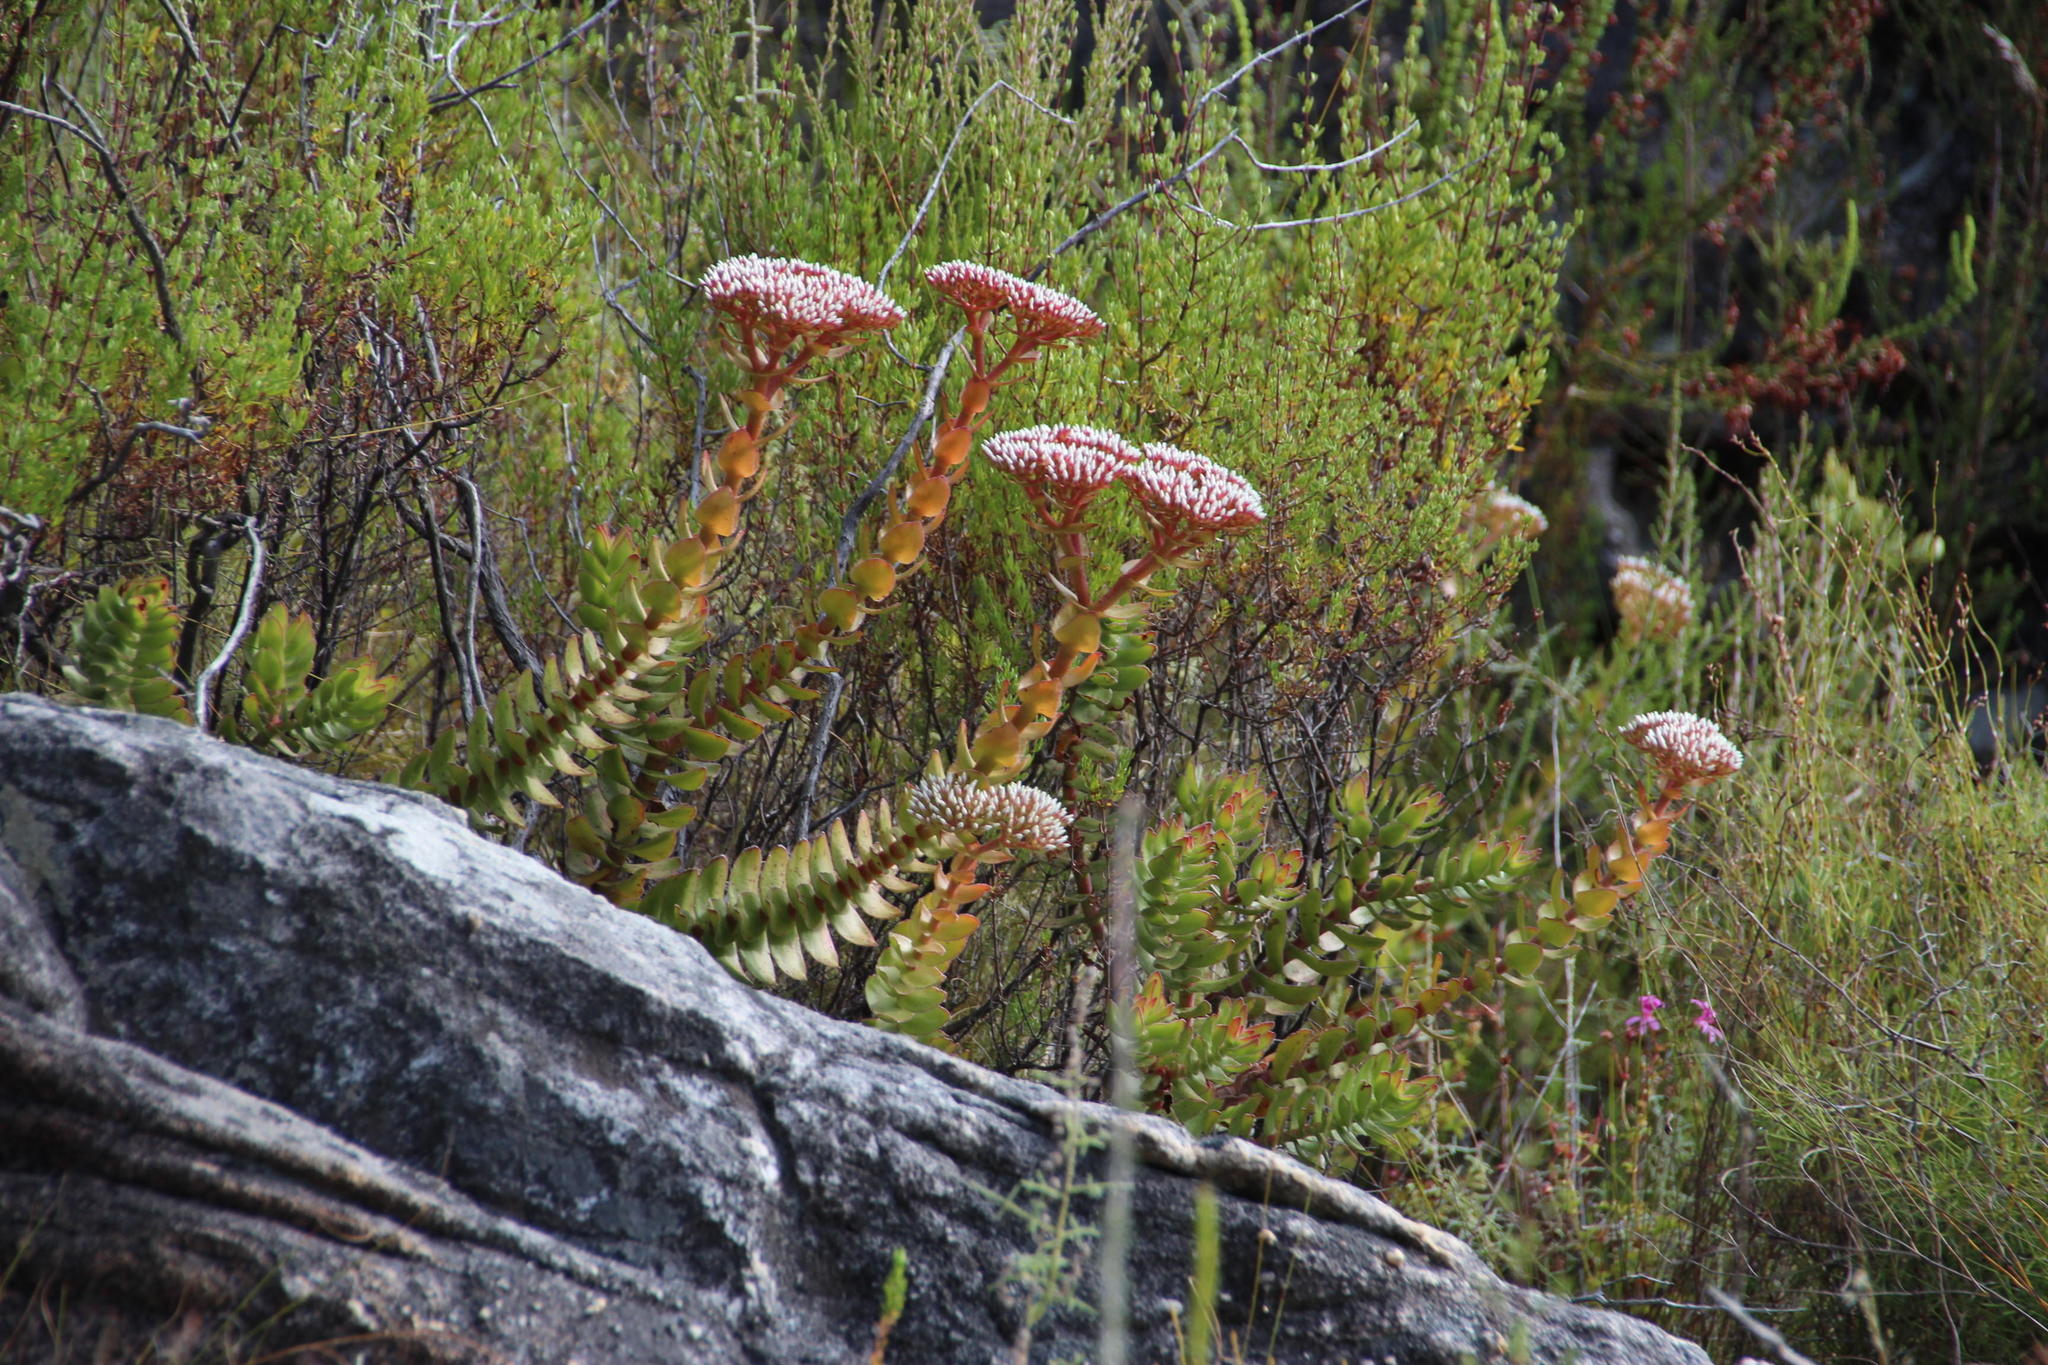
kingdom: Plantae
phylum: Tracheophyta
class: Magnoliopsida
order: Saxifragales
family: Crassulaceae
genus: Crassula
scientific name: Crassula undulata
